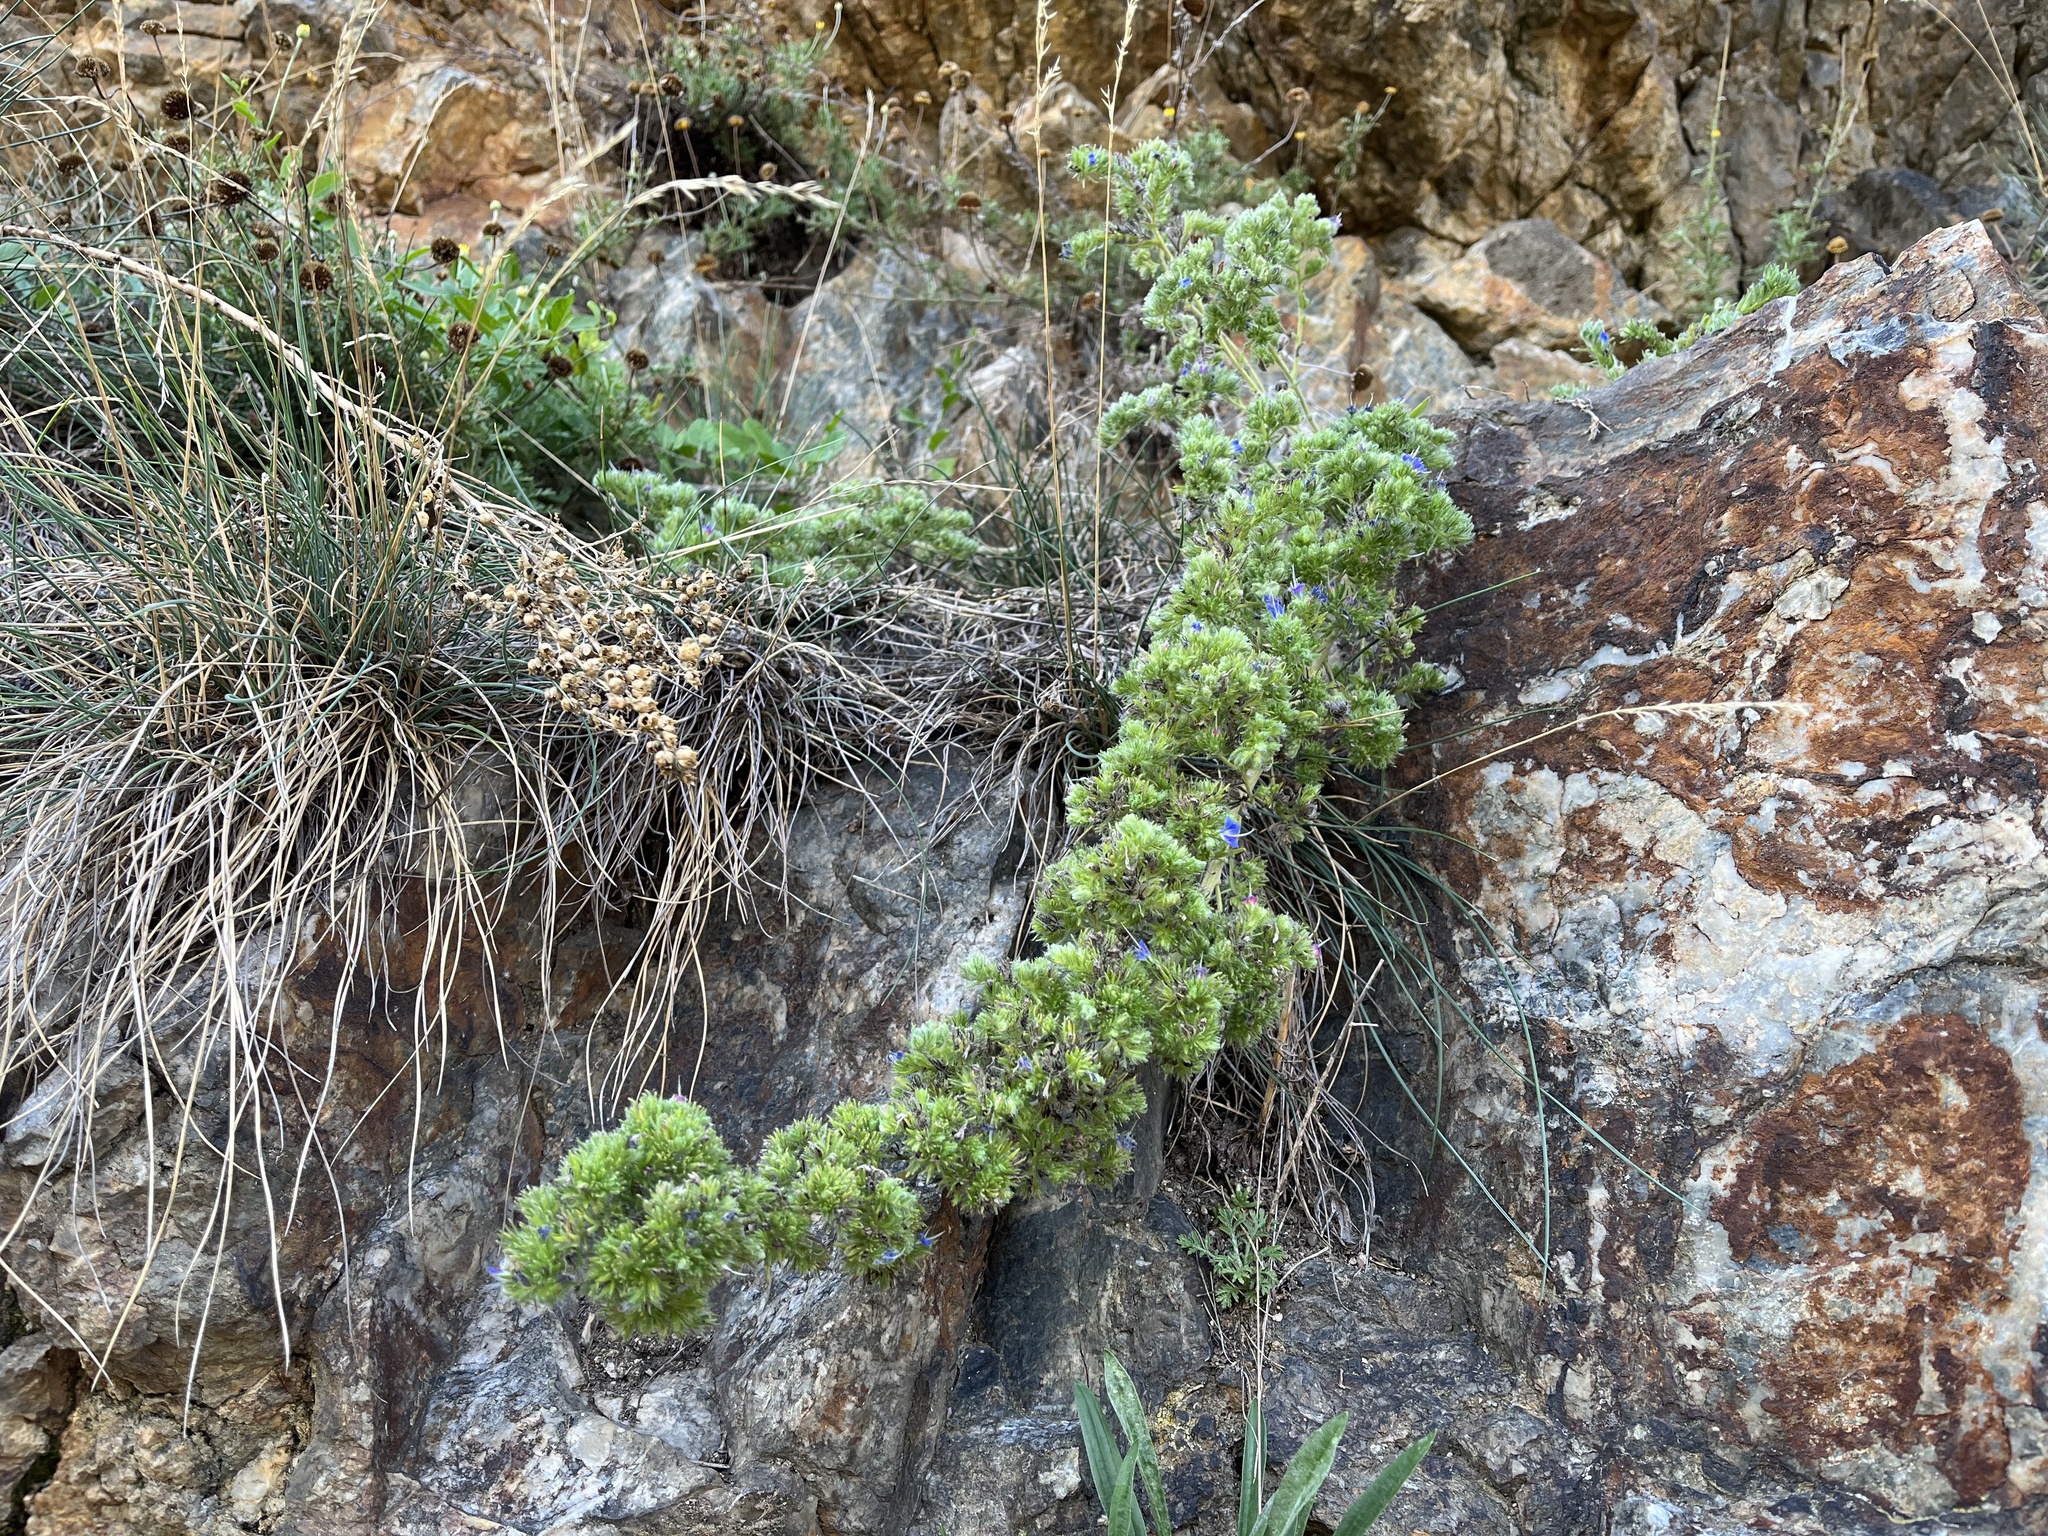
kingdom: Animalia
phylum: Arthropoda
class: Arachnida
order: Trombidiformes
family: Eriophyidae
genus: Aceria
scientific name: Aceria echii
